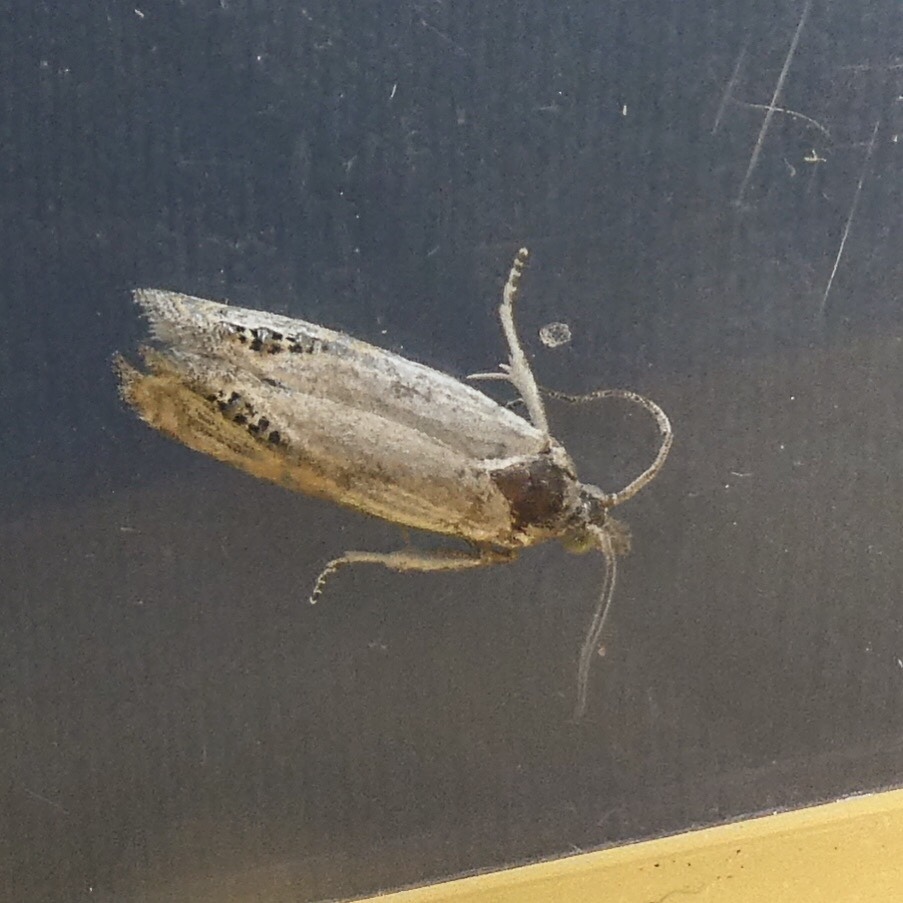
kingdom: Animalia
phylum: Arthropoda
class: Insecta
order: Lepidoptera
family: Tortricidae
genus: Pelochrista
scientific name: Pelochrista scintillana
